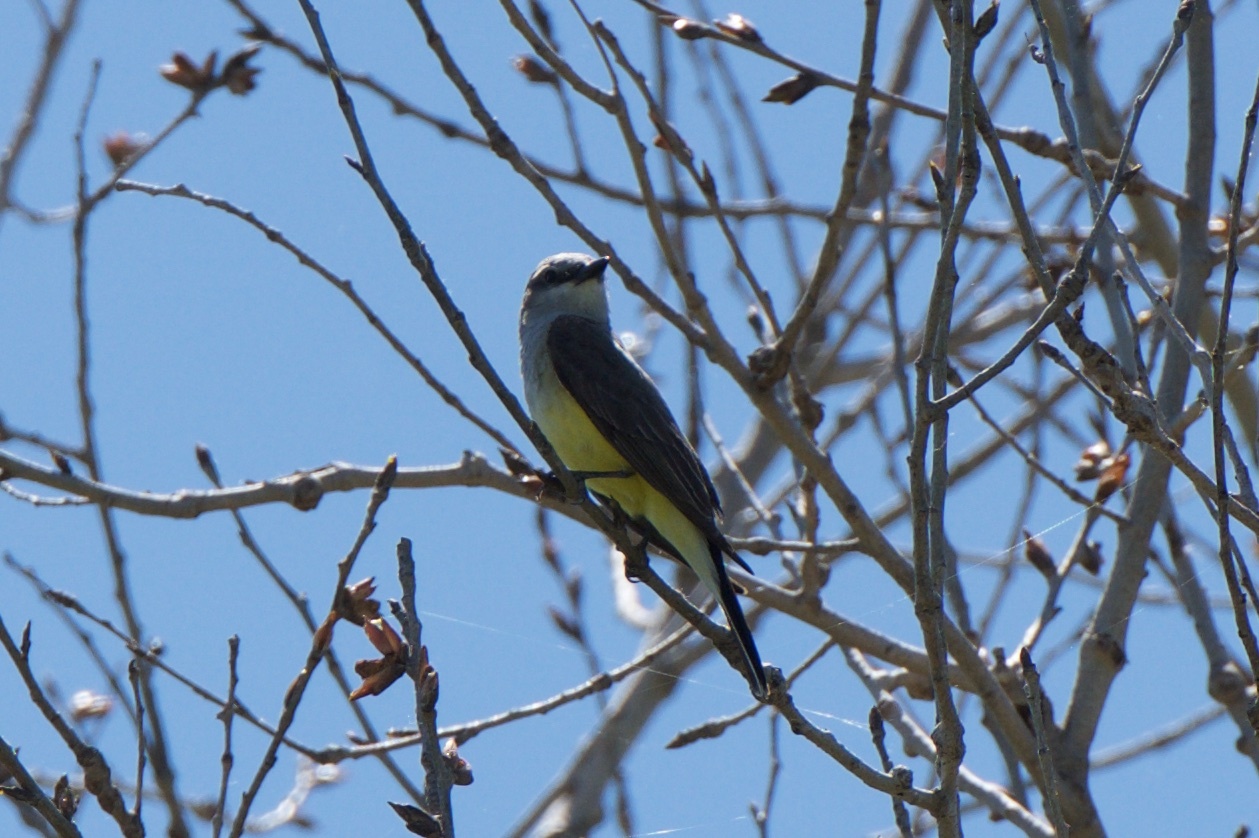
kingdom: Animalia
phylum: Chordata
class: Aves
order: Passeriformes
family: Tyrannidae
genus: Tyrannus
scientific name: Tyrannus verticalis
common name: Western kingbird
